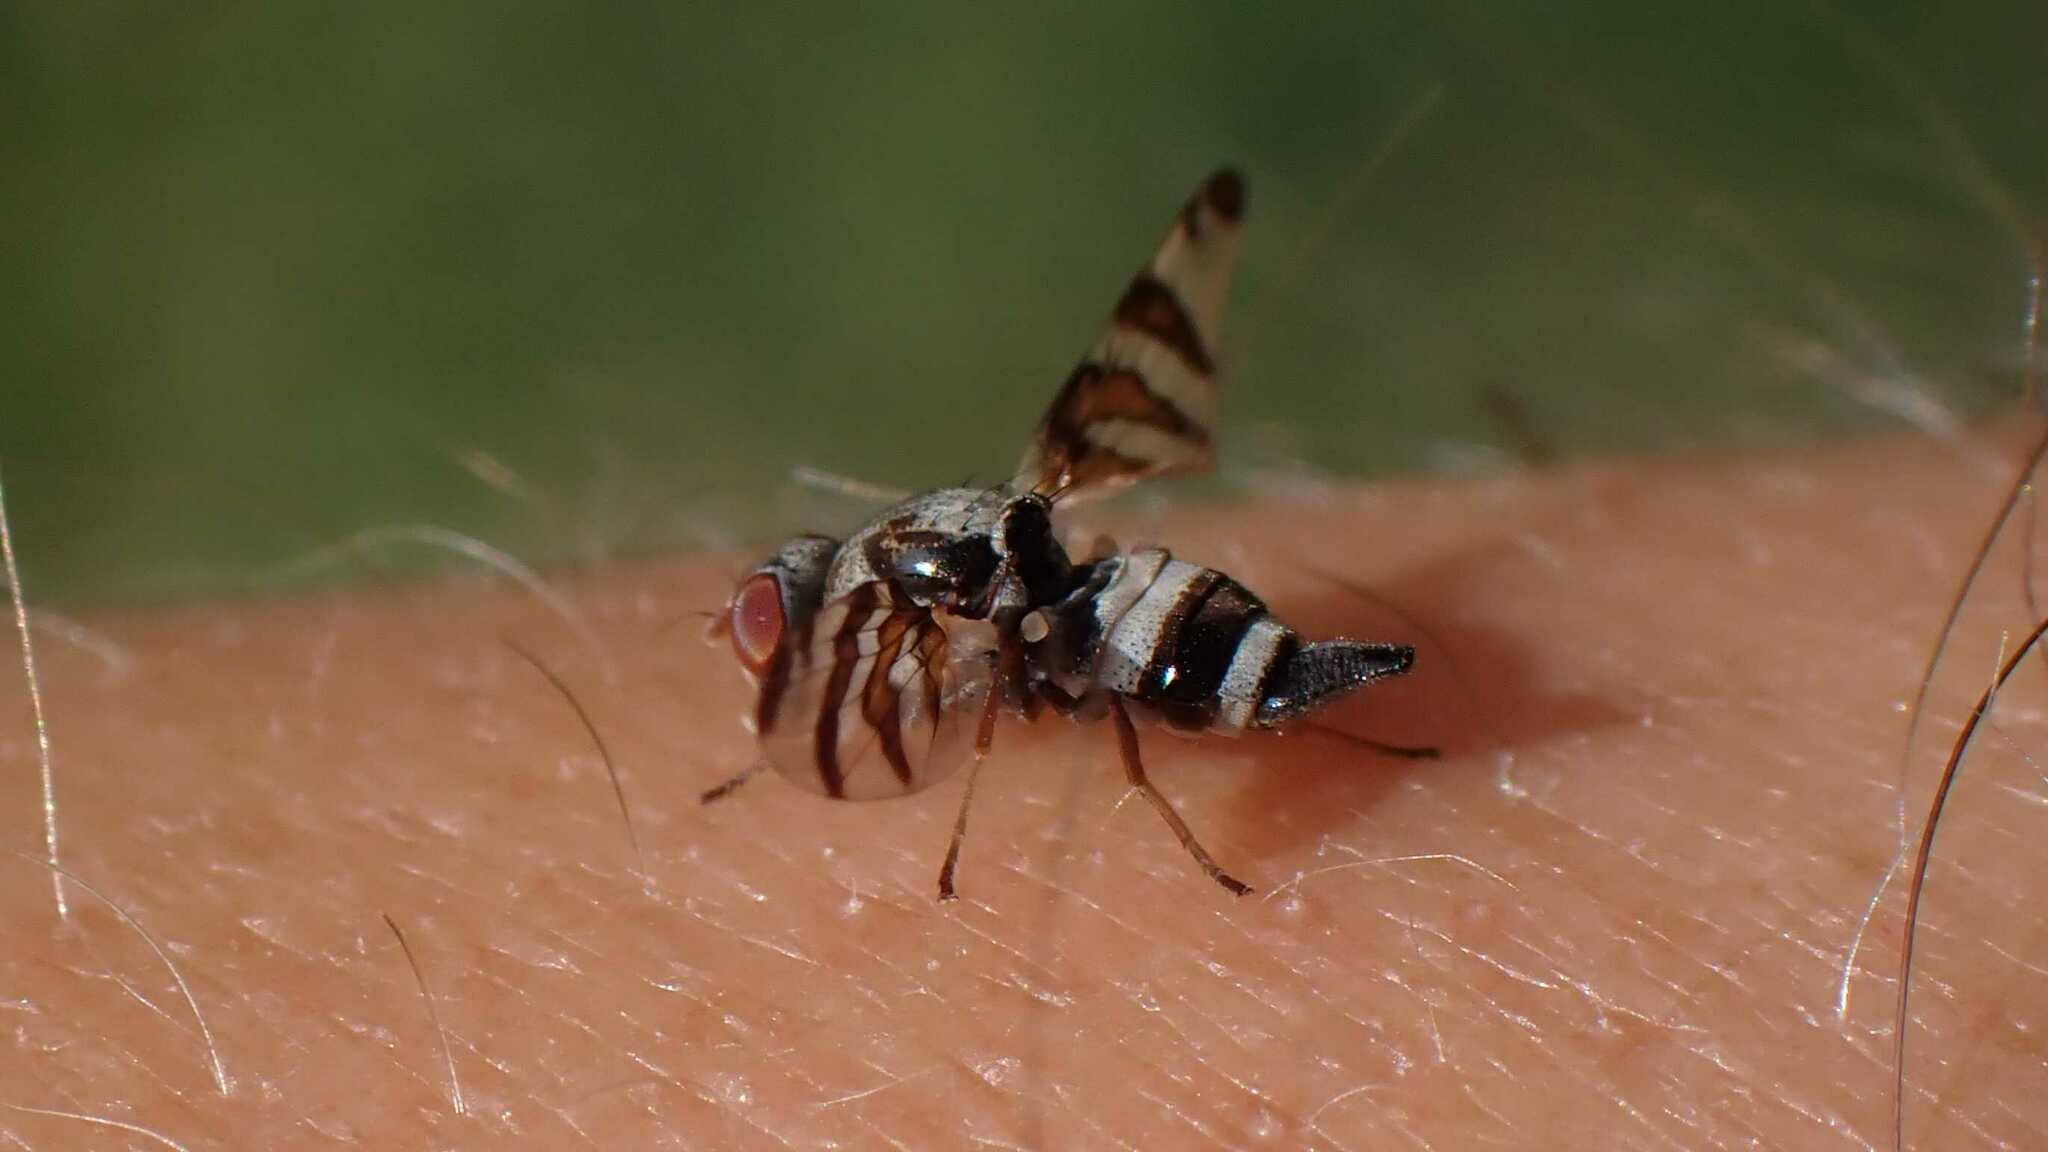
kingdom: Animalia
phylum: Arthropoda
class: Insecta
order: Diptera
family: Ulidiidae
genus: Myennis
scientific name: Myennis octopunctata
